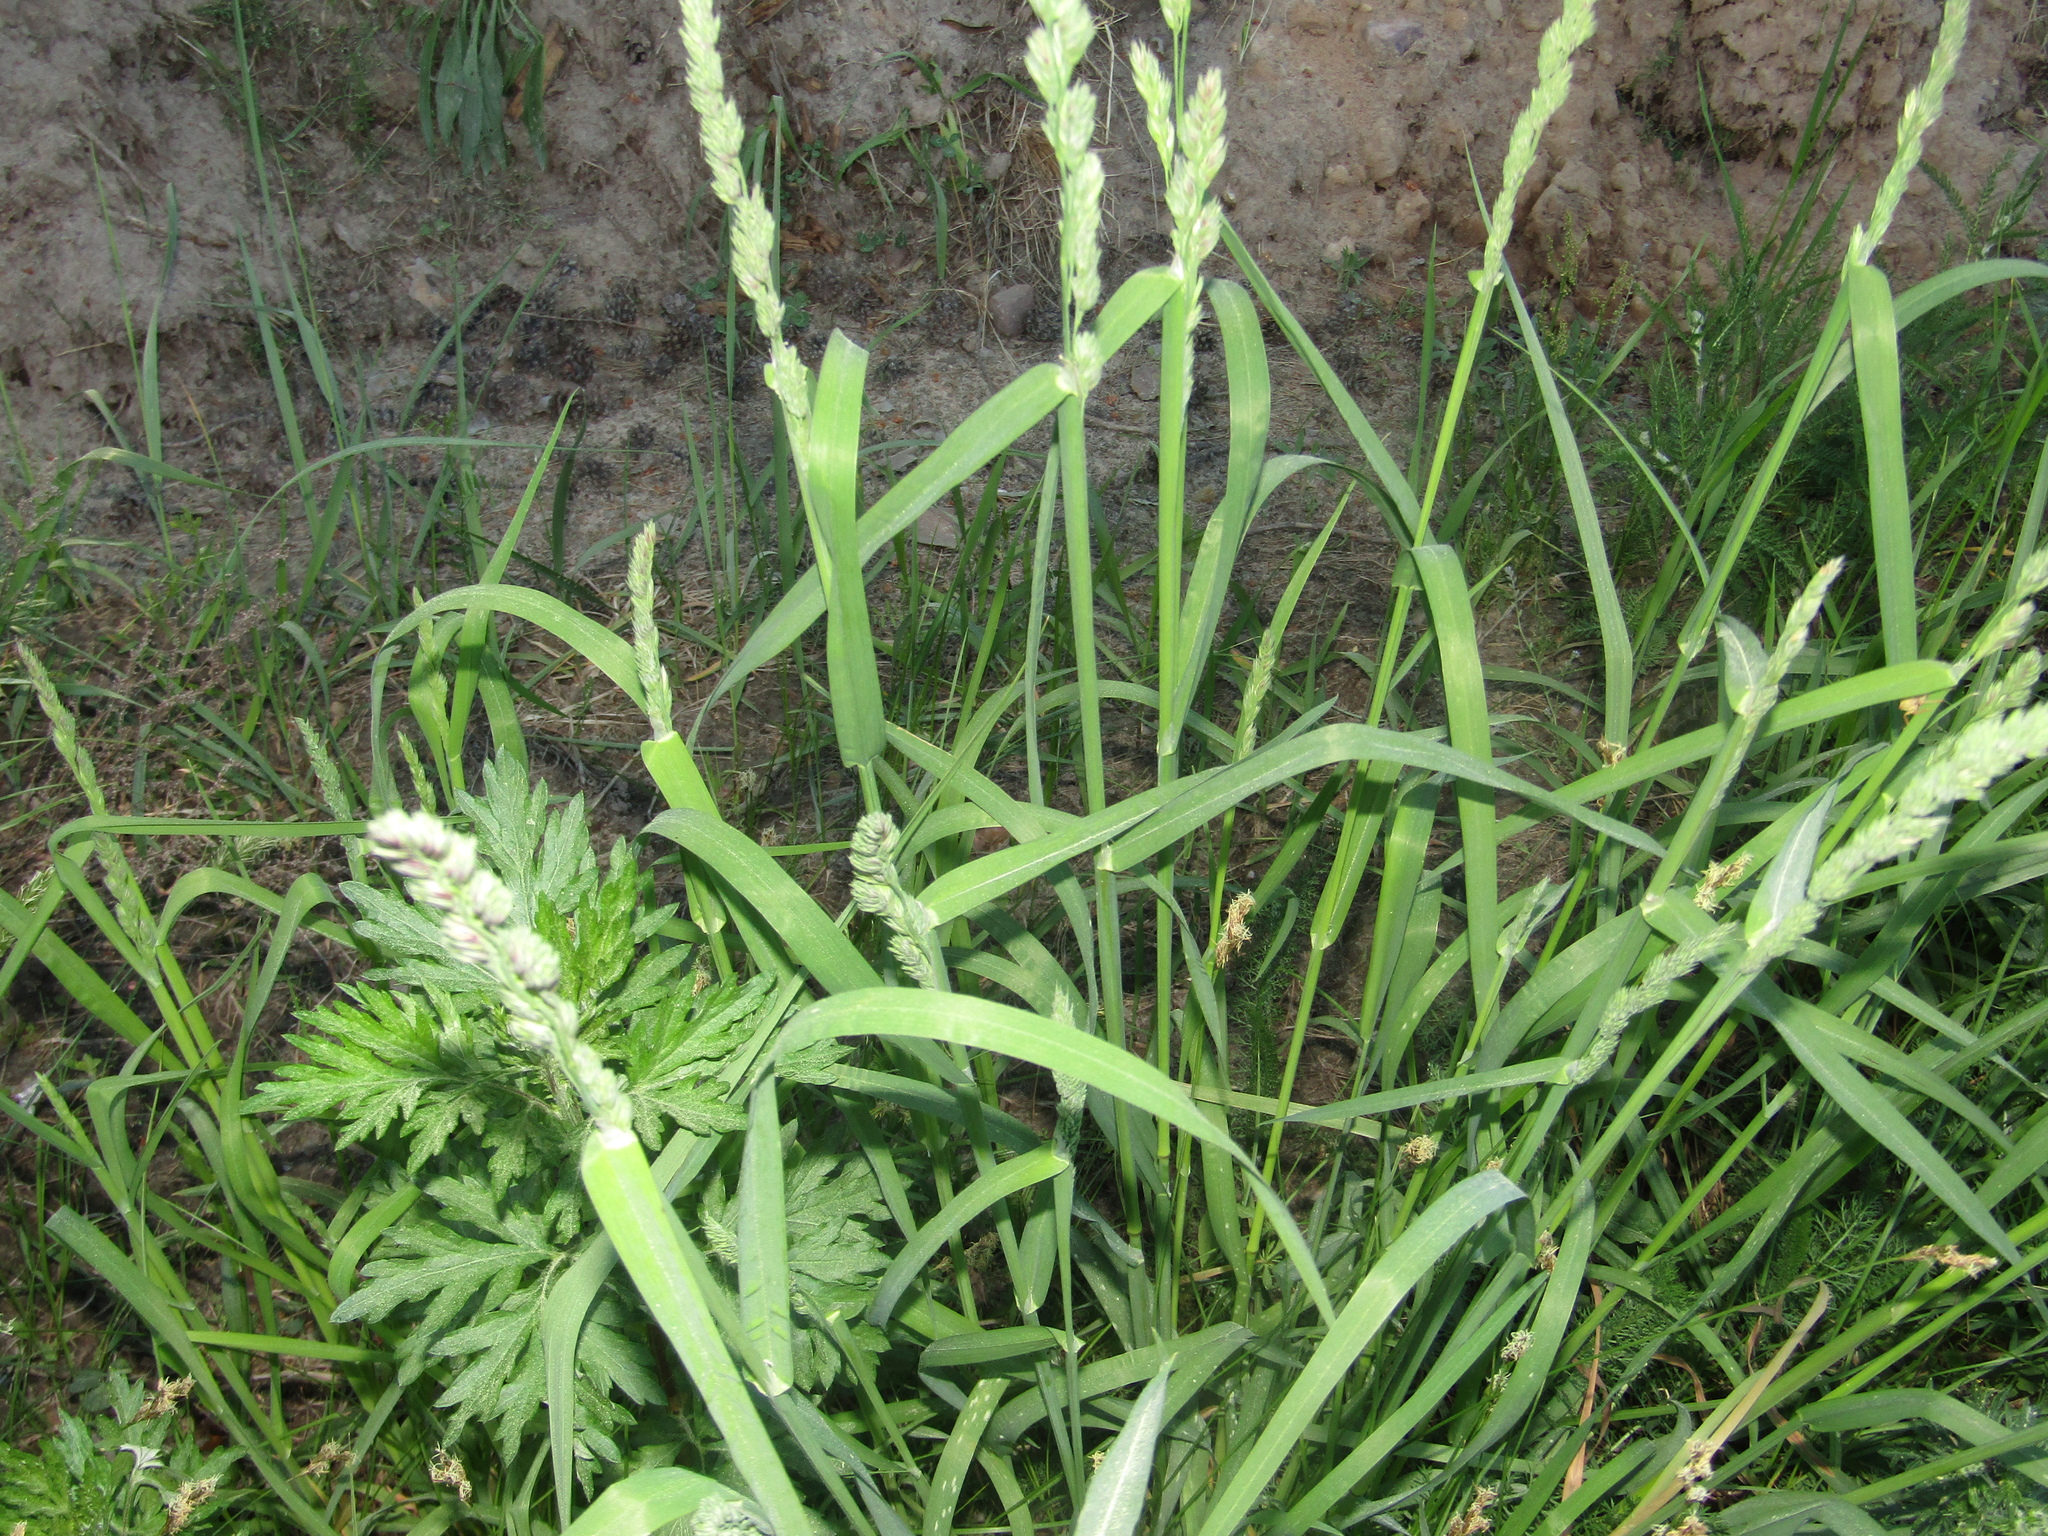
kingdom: Plantae
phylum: Tracheophyta
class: Liliopsida
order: Poales
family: Poaceae
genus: Dactylis
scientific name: Dactylis glomerata
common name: Orchardgrass
